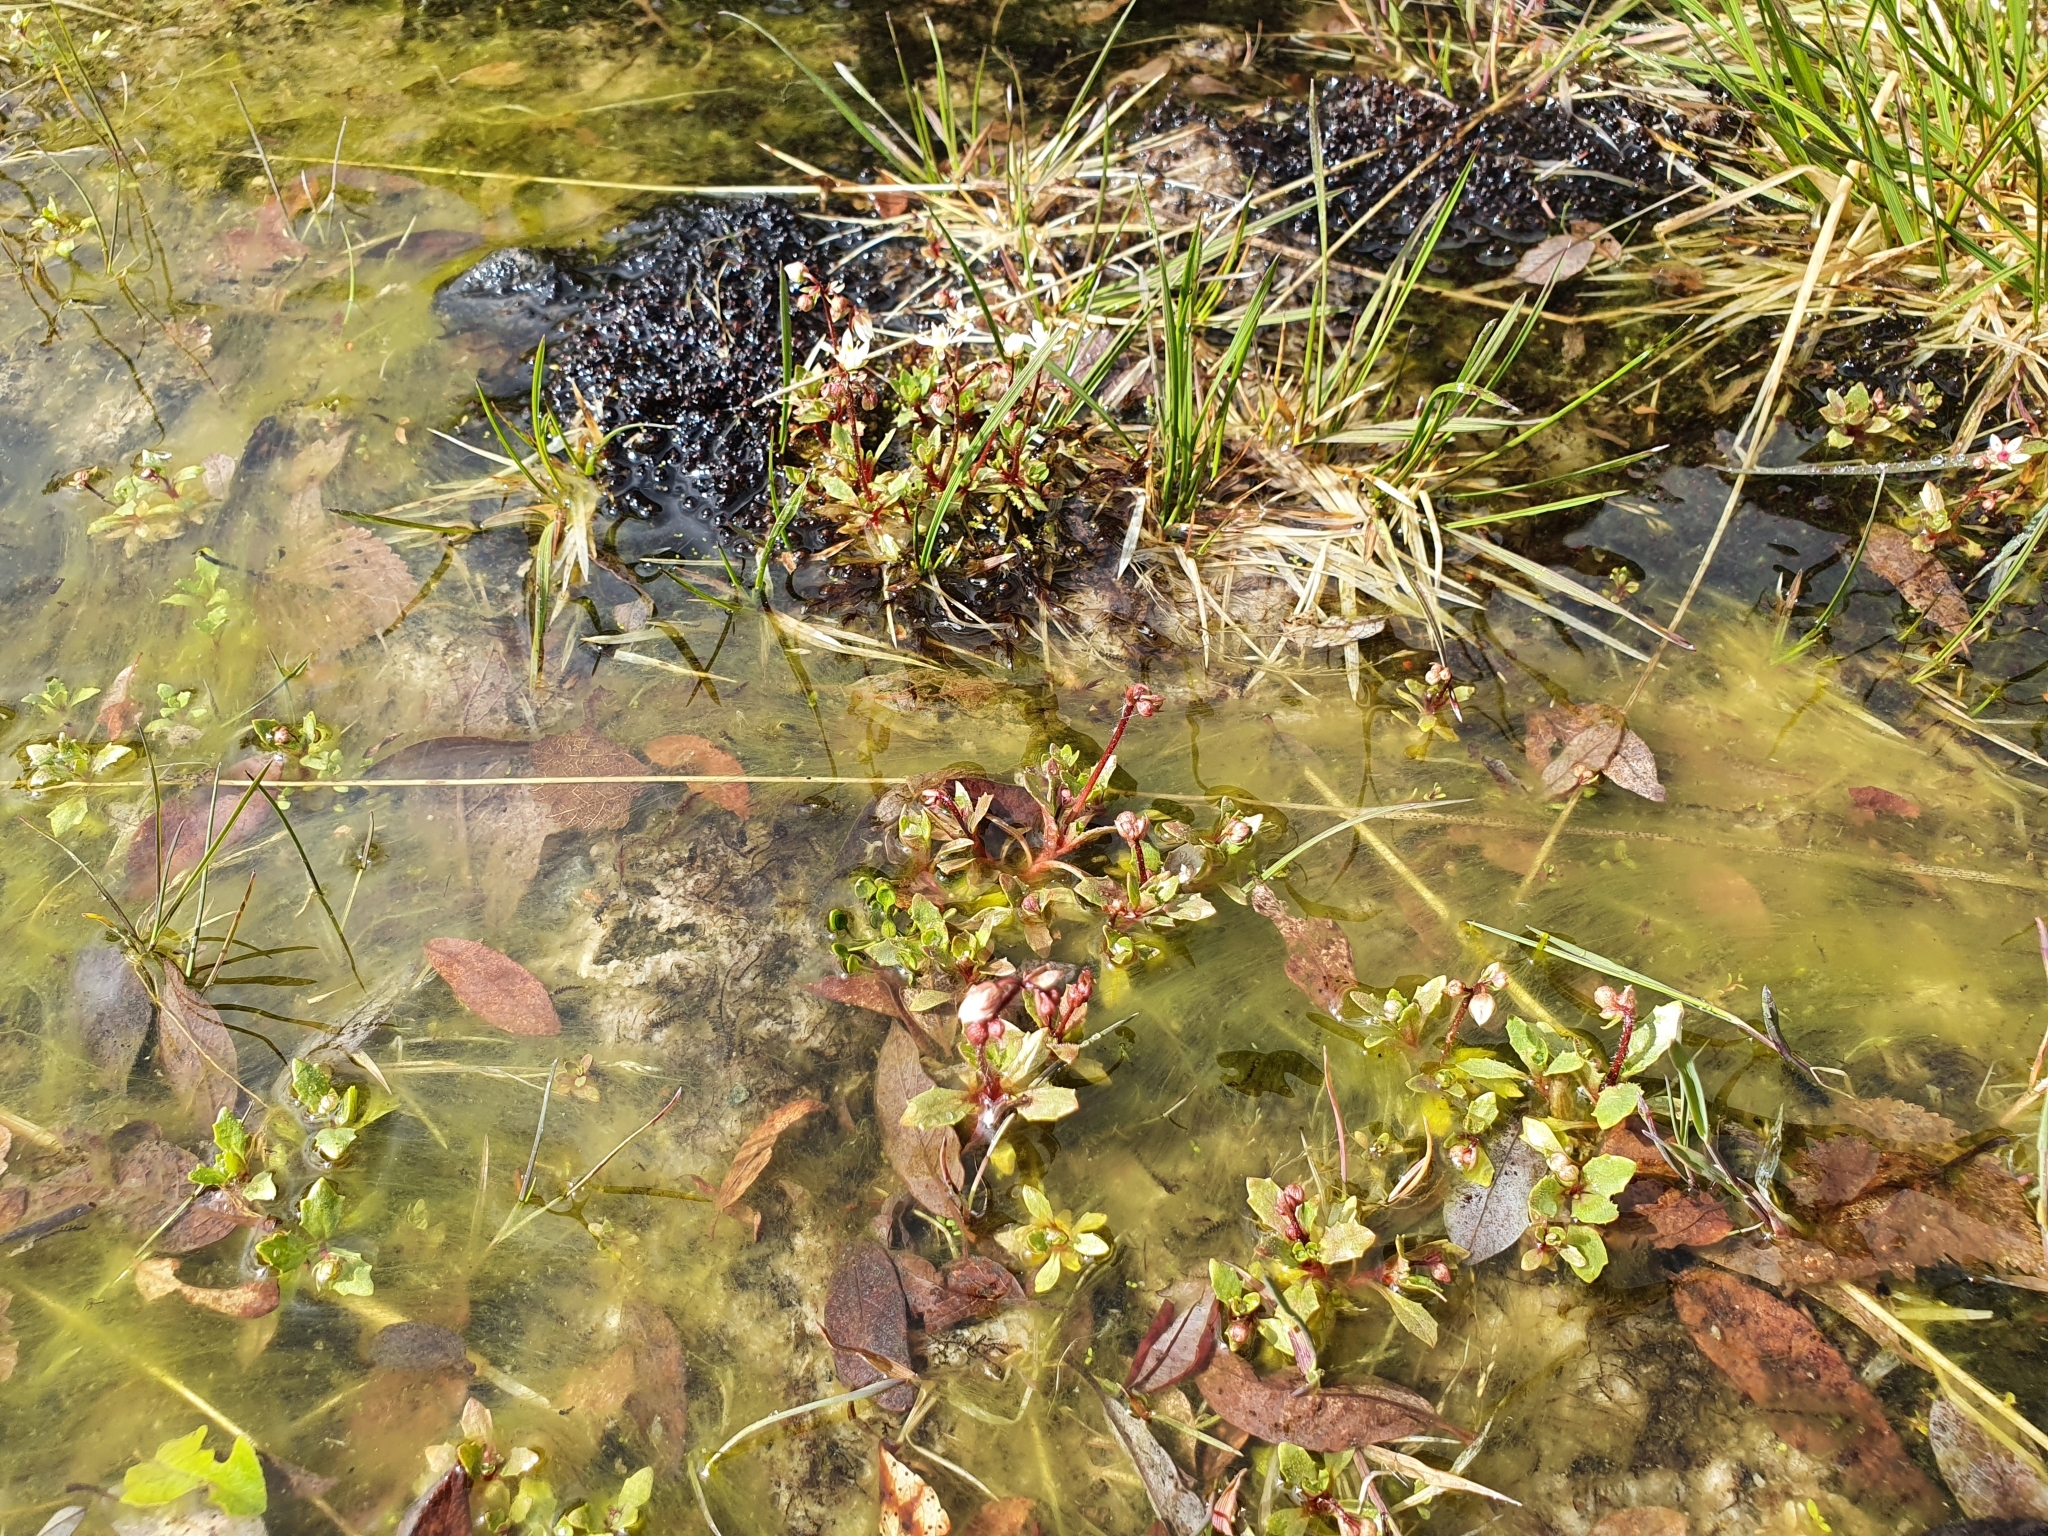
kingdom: Plantae
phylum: Tracheophyta
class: Magnoliopsida
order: Saxifragales
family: Saxifragaceae
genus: Micranthes
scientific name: Micranthes stellaris
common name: Starry saxifrage
